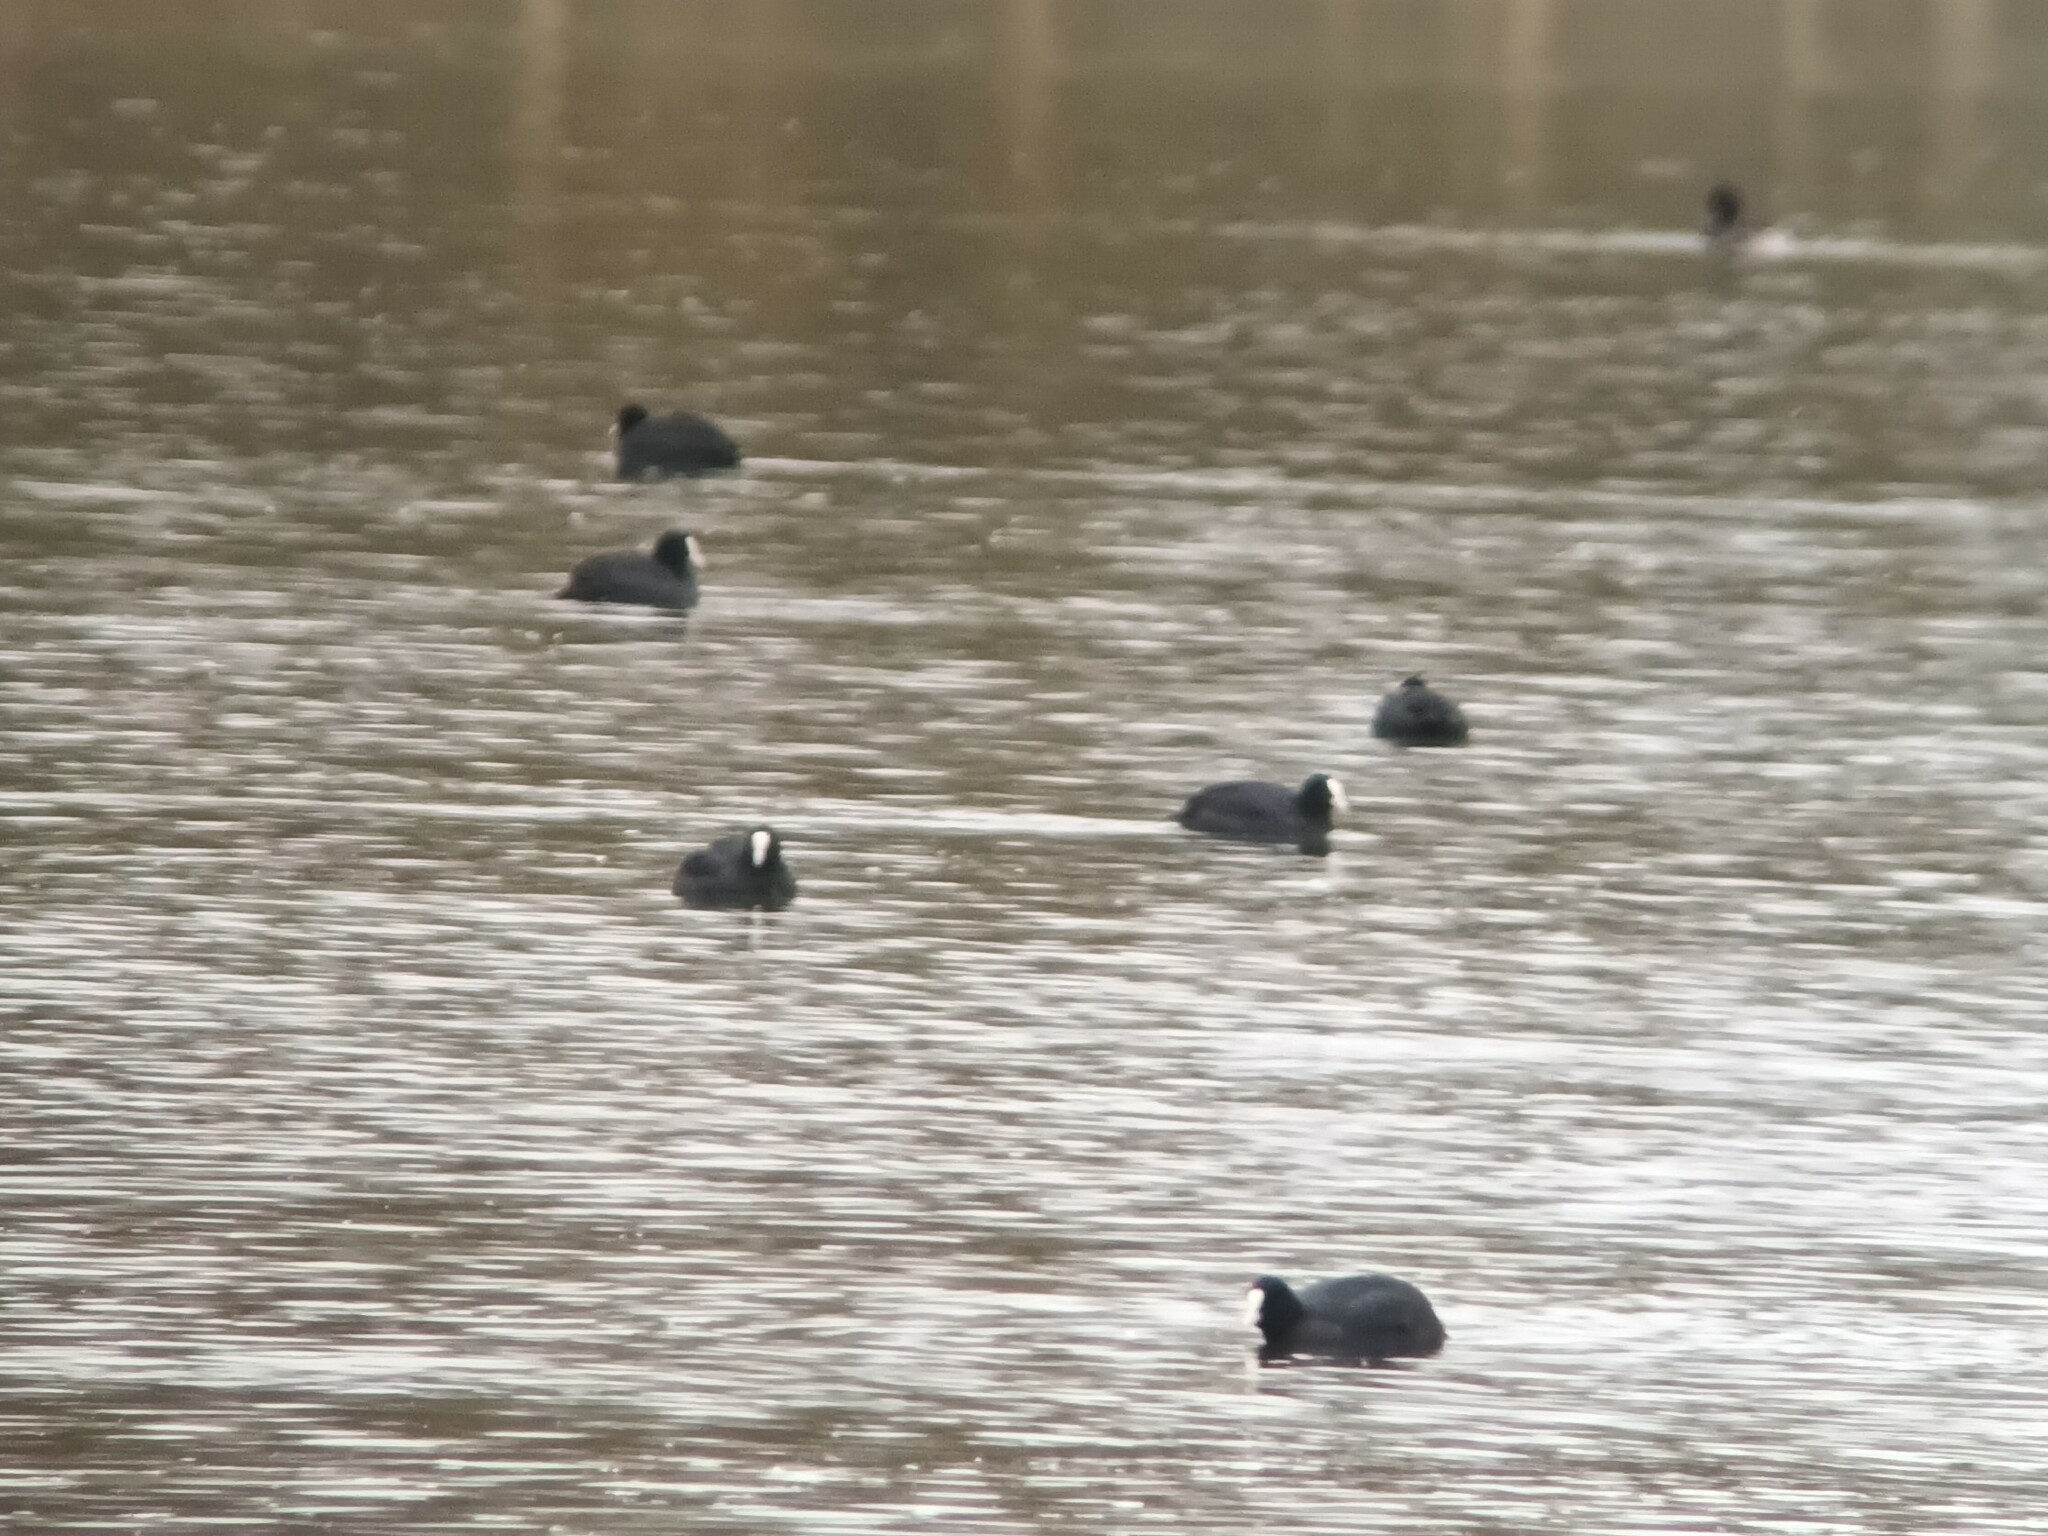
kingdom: Animalia
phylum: Chordata
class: Aves
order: Gruiformes
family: Rallidae
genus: Fulica
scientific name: Fulica atra
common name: Eurasian coot
